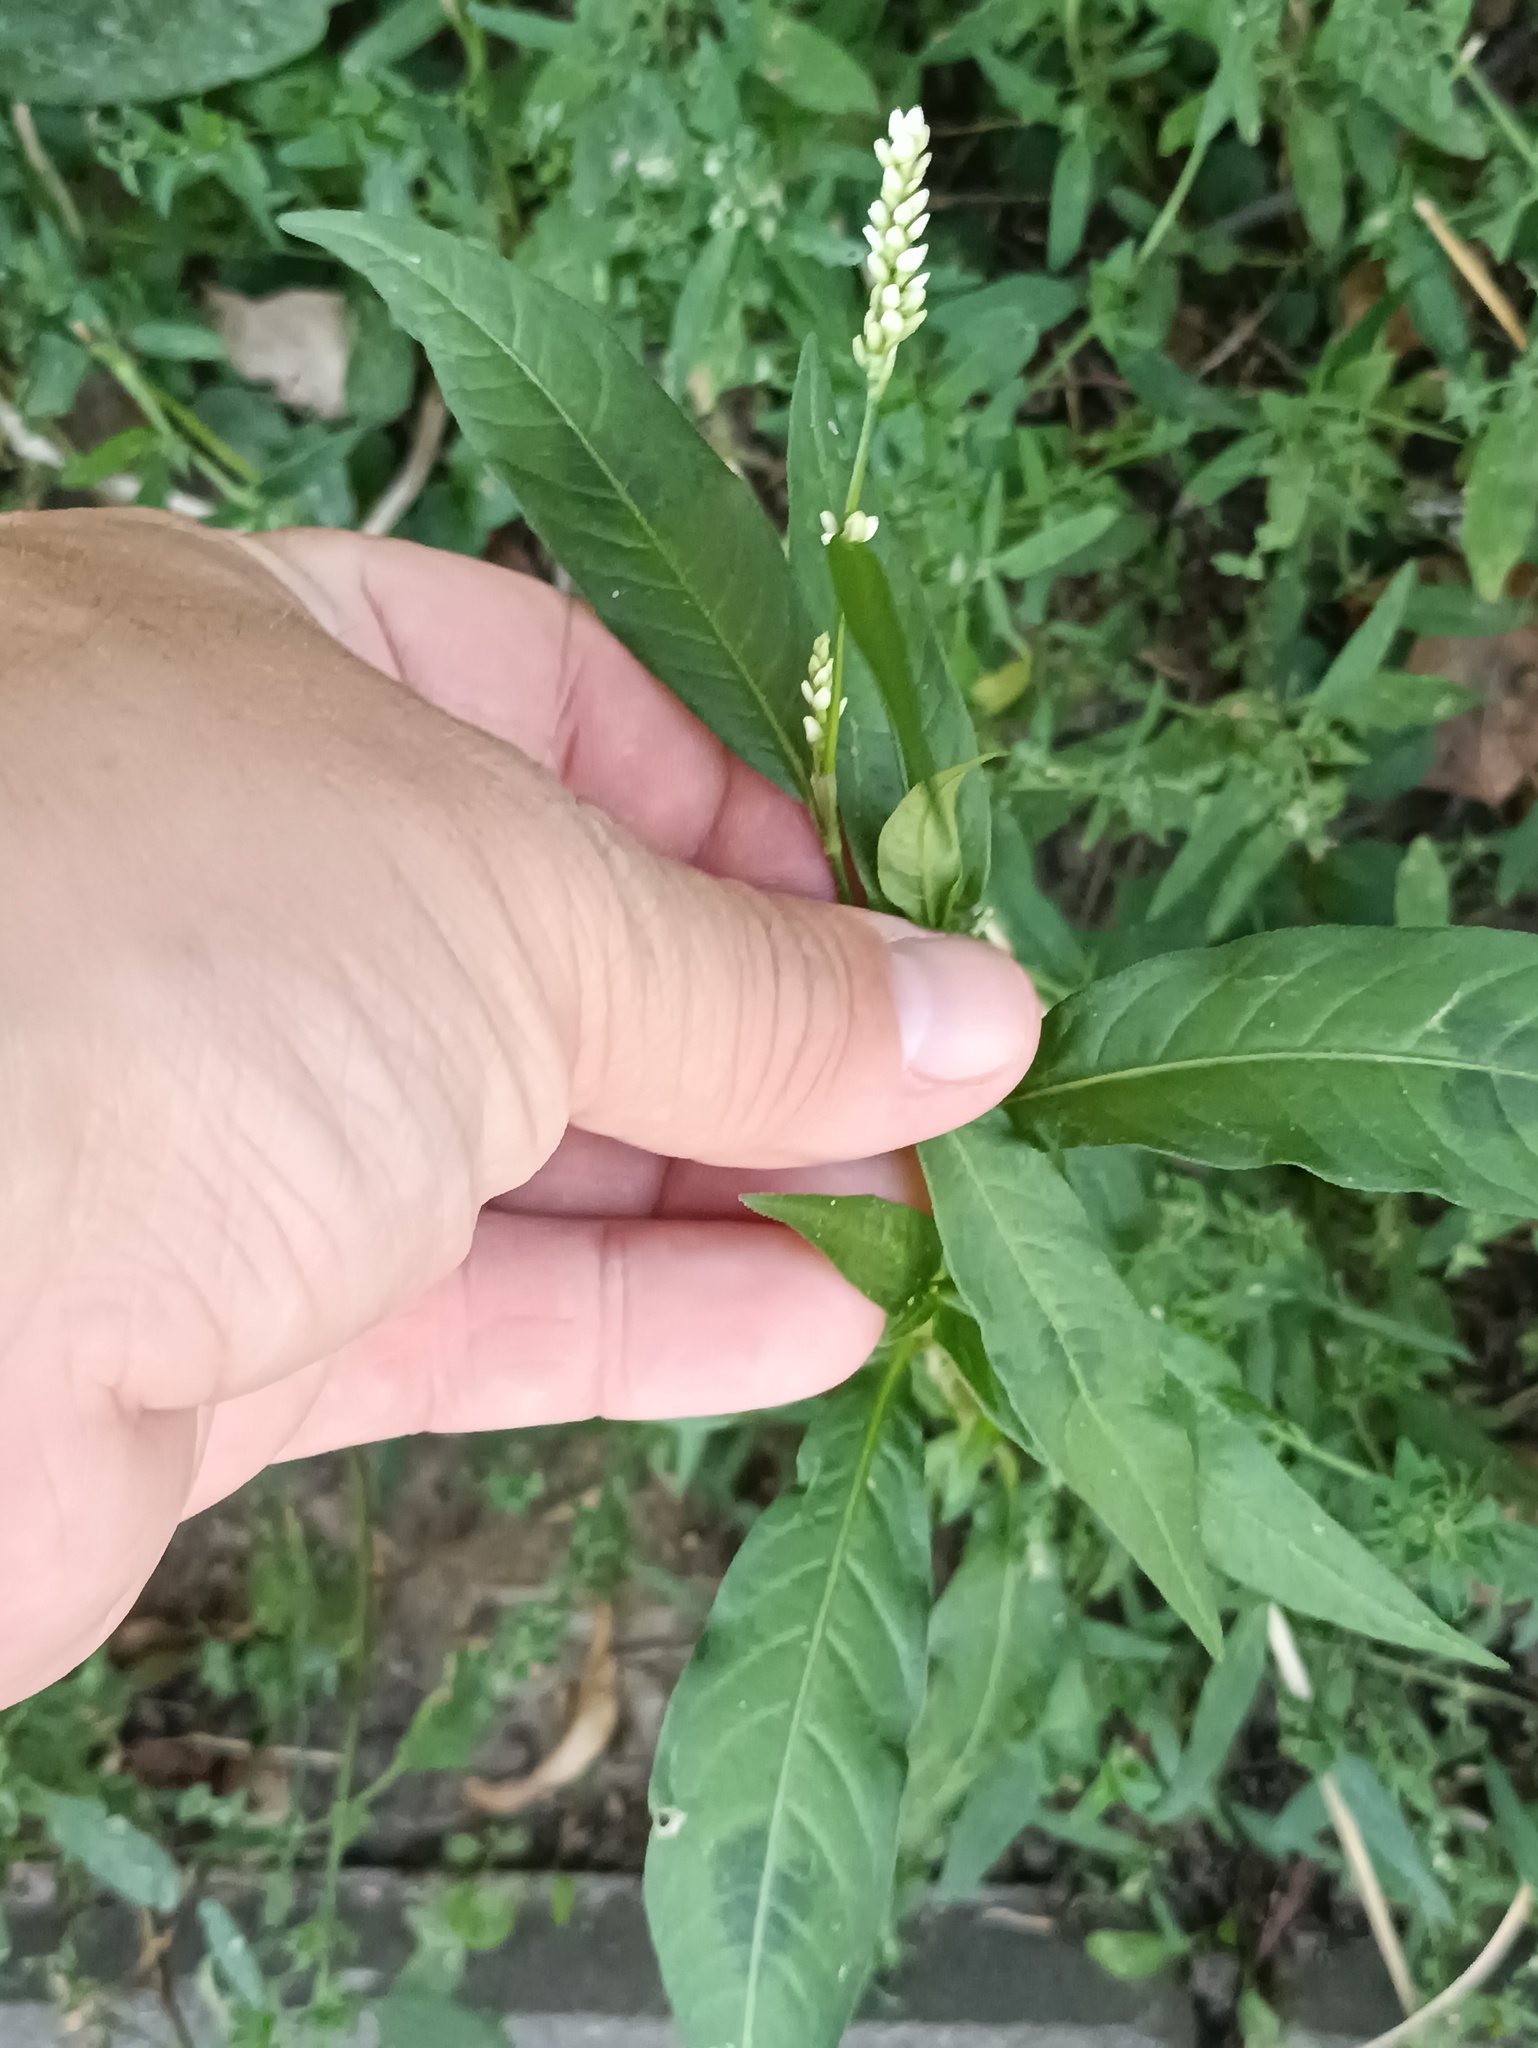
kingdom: Plantae
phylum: Tracheophyta
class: Magnoliopsida
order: Caryophyllales
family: Polygonaceae
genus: Persicaria
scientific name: Persicaria lapathifolia
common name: Curlytop knotweed
